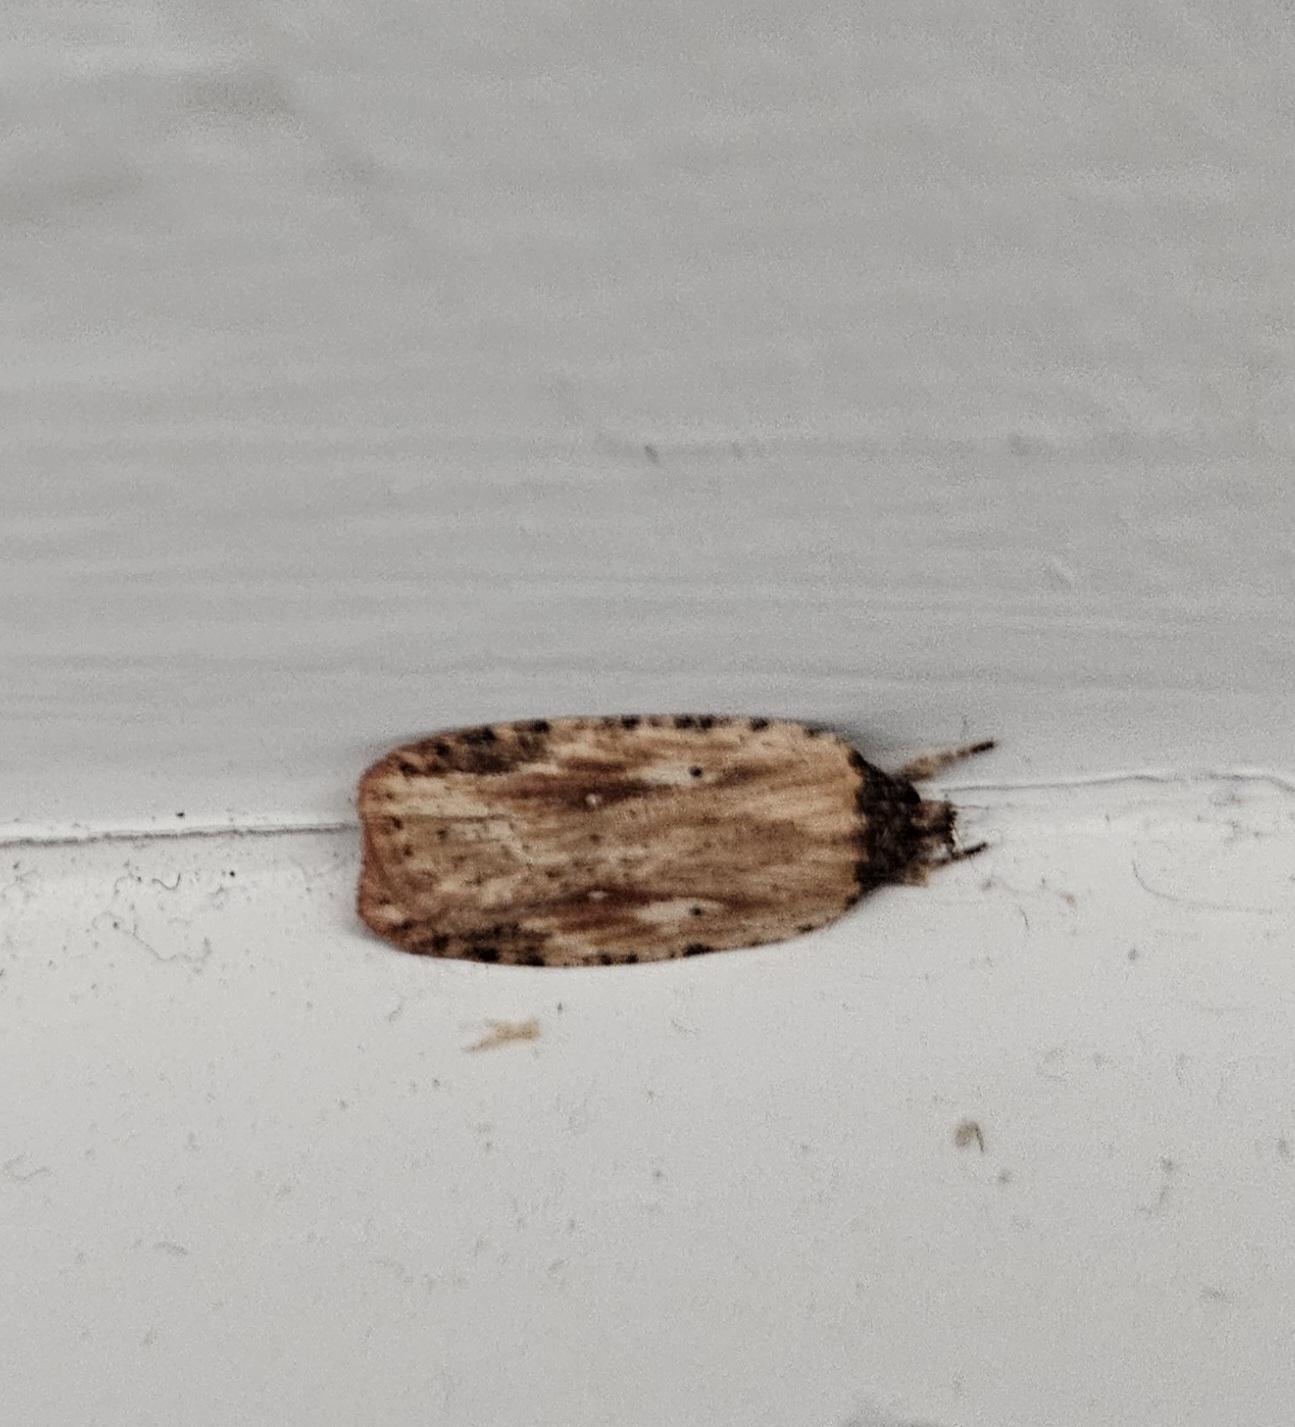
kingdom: Animalia
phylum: Arthropoda
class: Insecta
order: Lepidoptera
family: Depressariidae
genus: Agonopterix
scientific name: Agonopterix pulvipennella
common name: Goldenrod leafffolder
